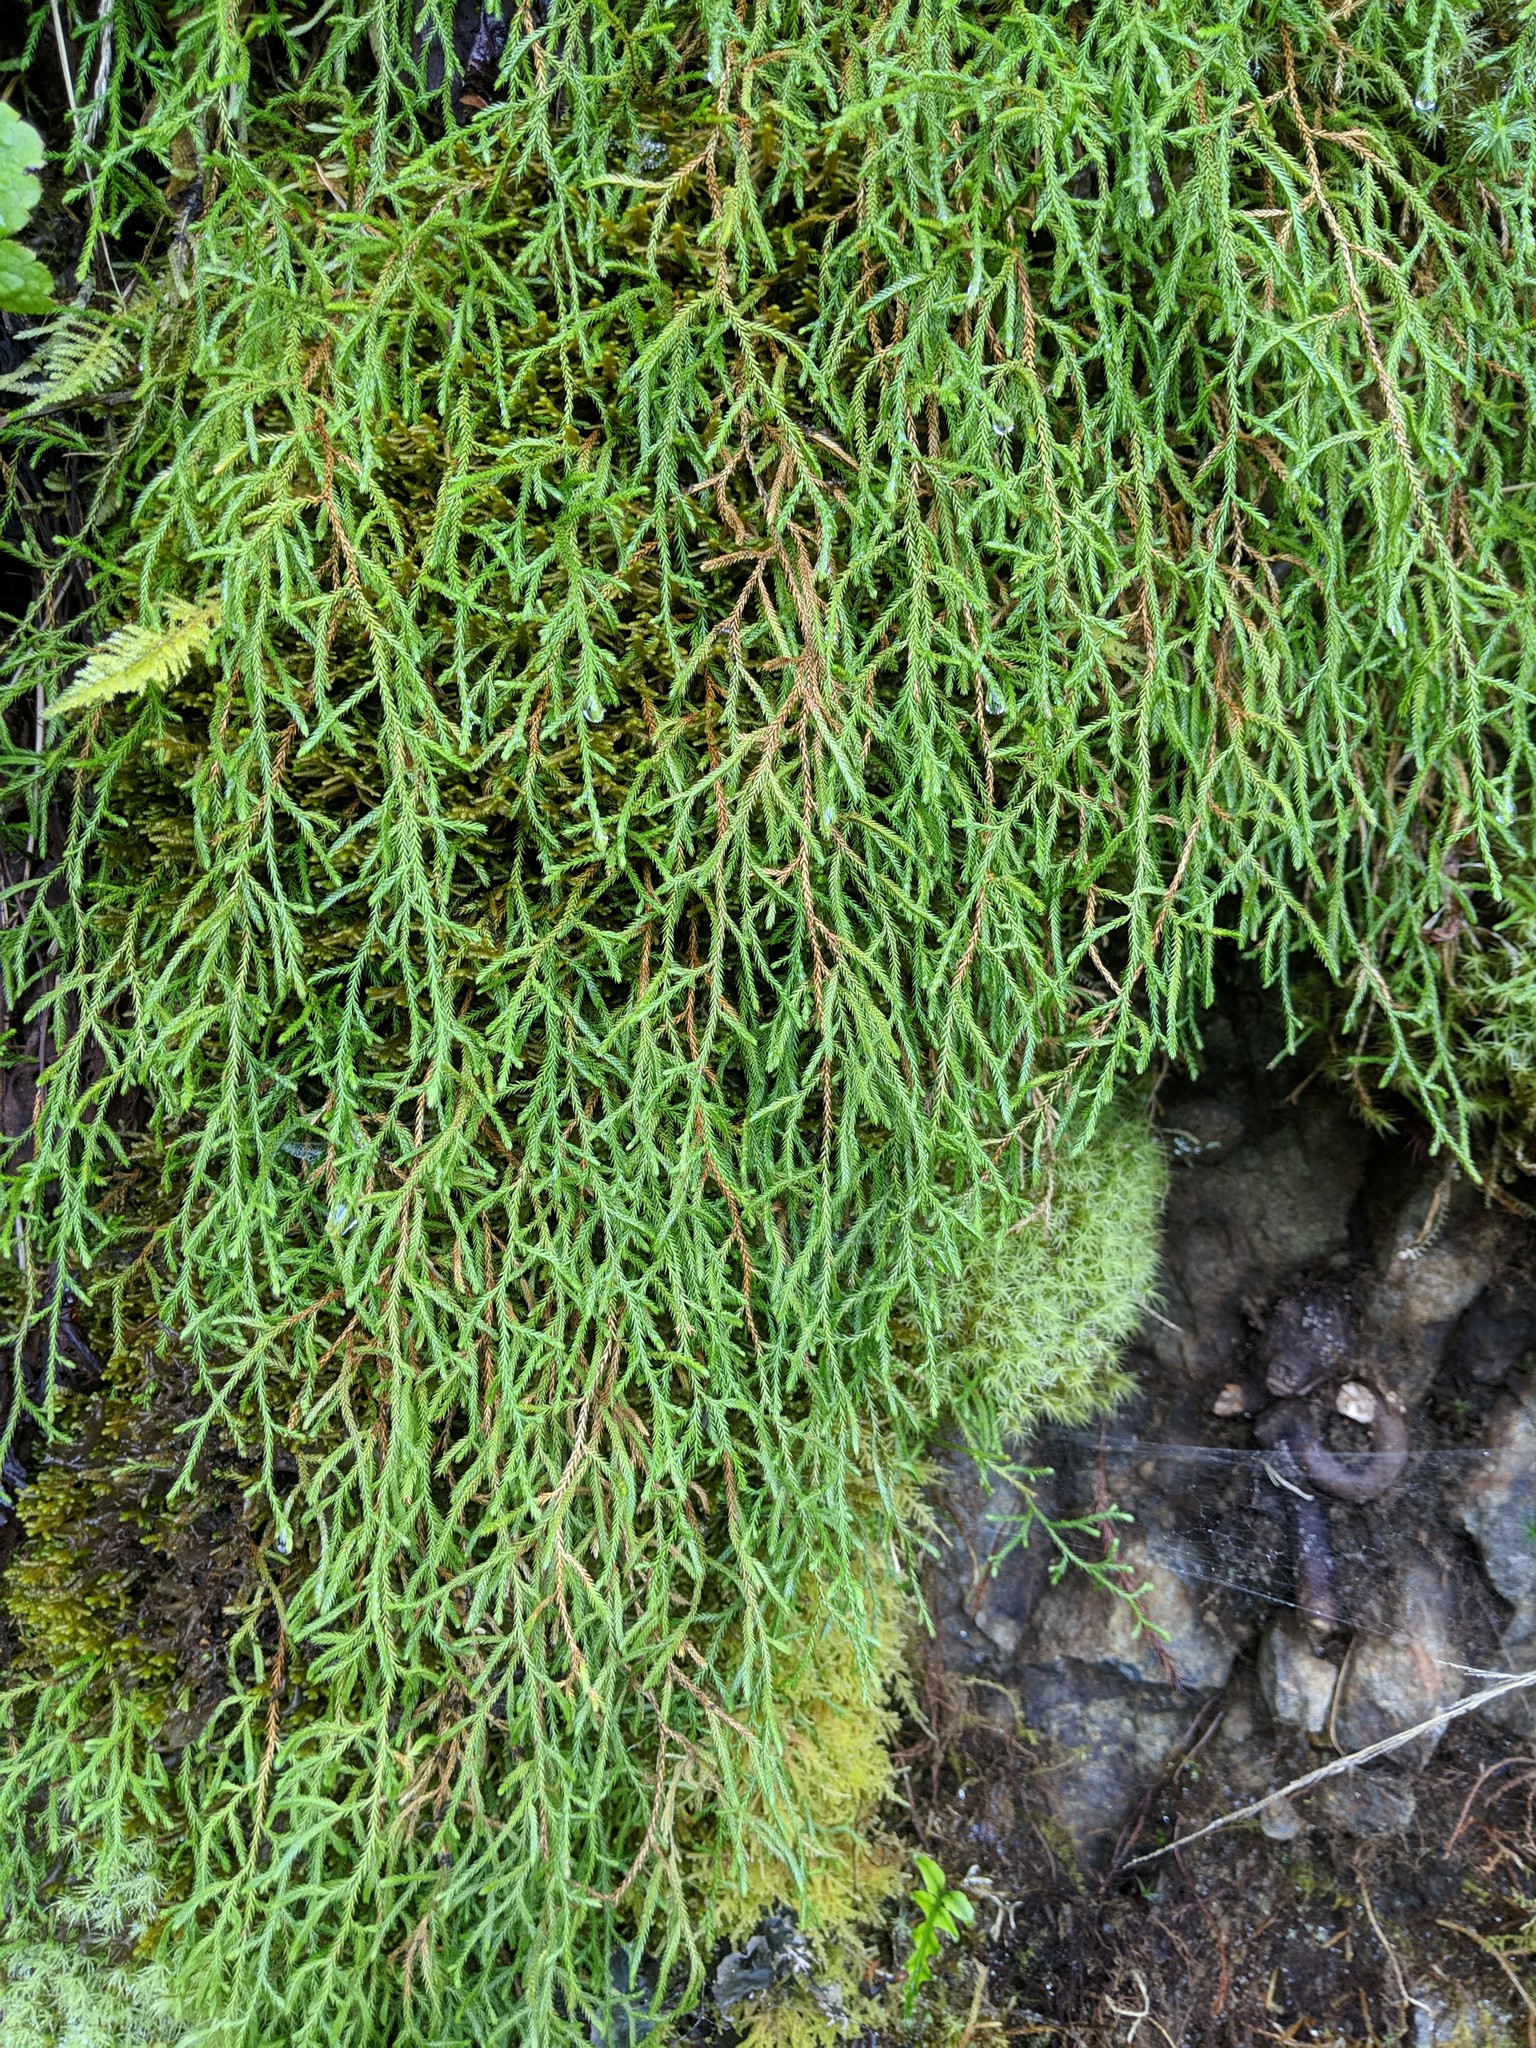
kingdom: Plantae
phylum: Tracheophyta
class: Lycopodiopsida
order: Selaginellales
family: Selaginellaceae
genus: Selaginella
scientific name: Selaginella oregana
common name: Oregon selaginella
